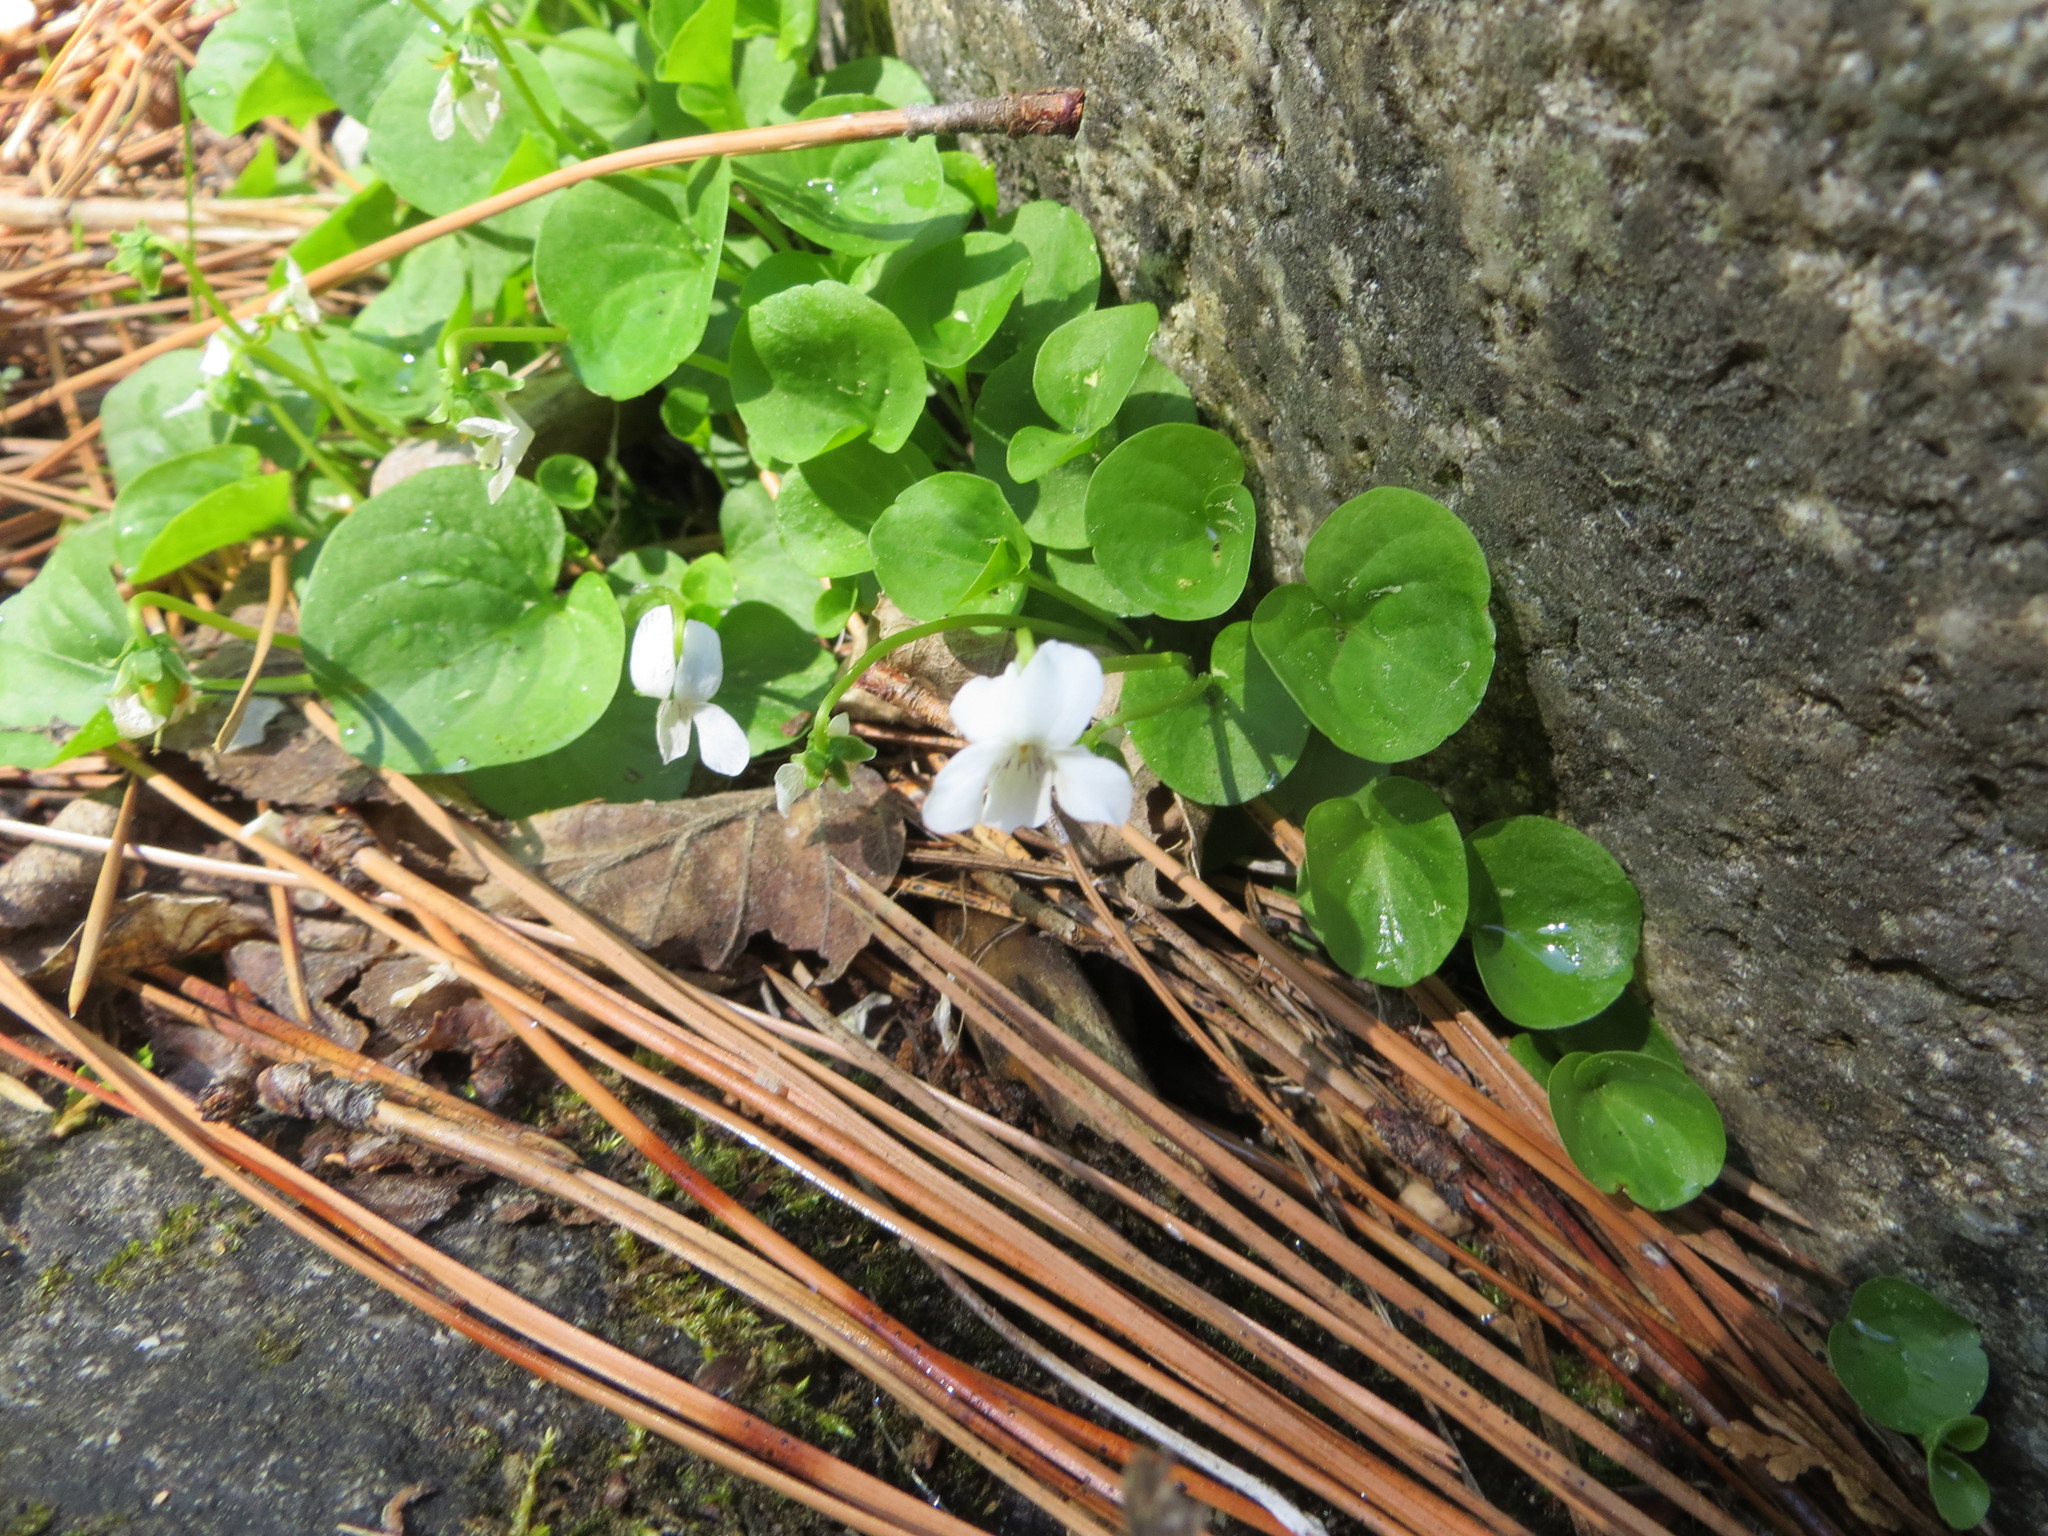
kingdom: Plantae
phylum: Tracheophyta
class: Magnoliopsida
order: Malpighiales
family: Violaceae
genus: Viola
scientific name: Viola macloskeyi
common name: Macloskey's violet
